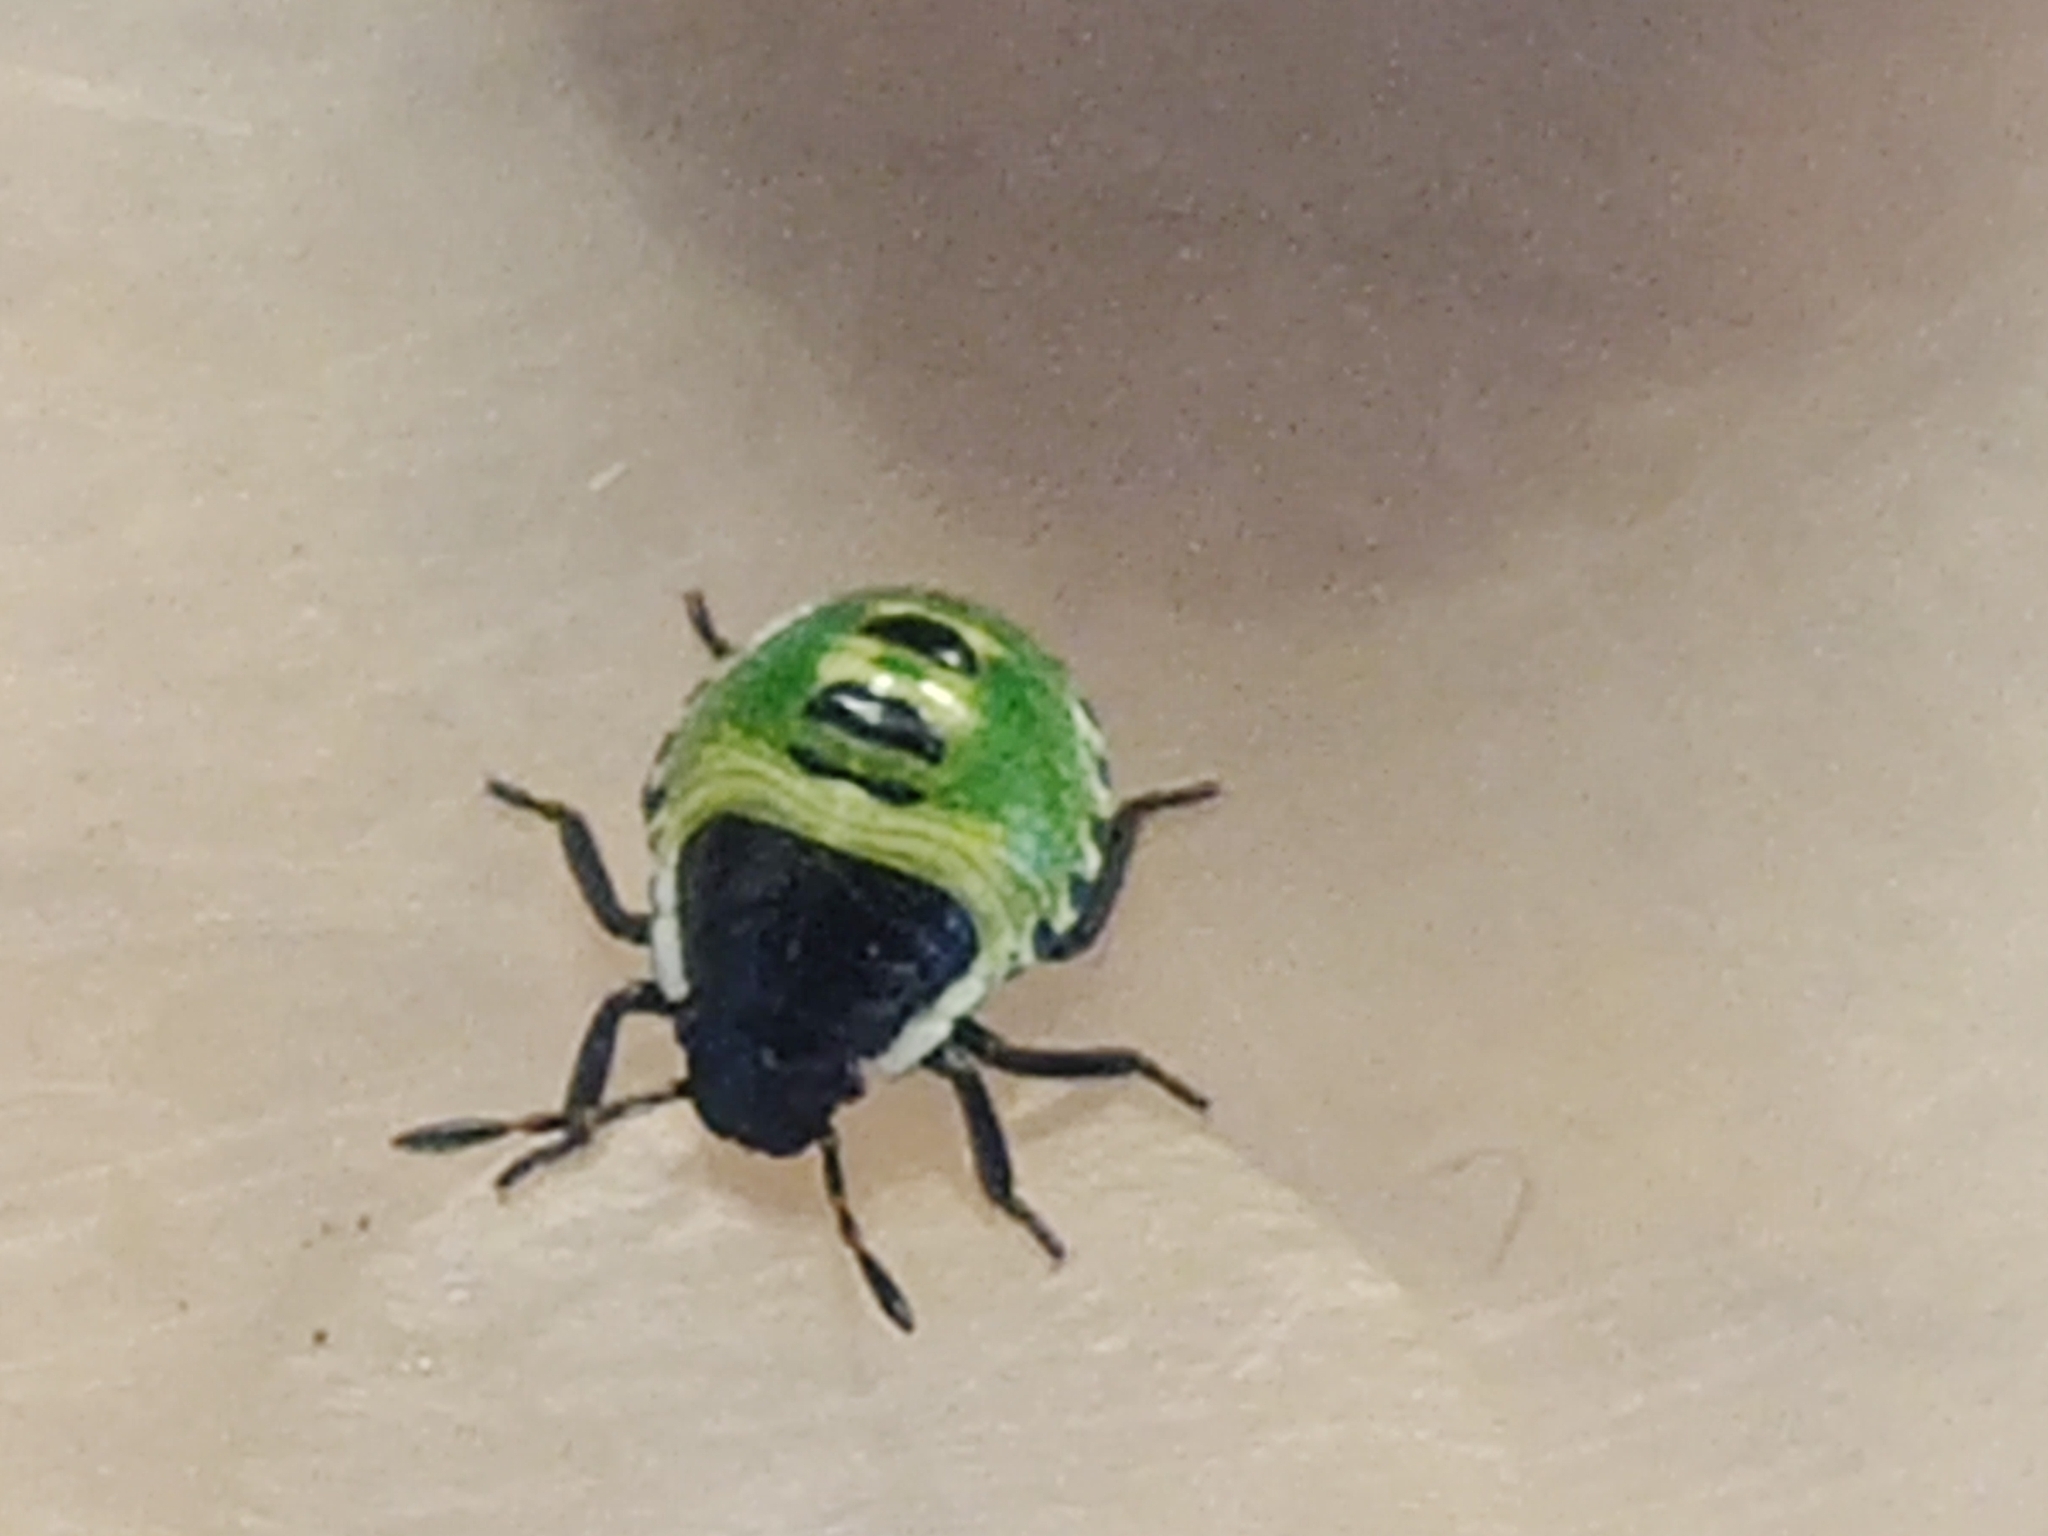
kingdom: Animalia
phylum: Arthropoda
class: Insecta
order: Hemiptera
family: Pentatomidae
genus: Palomena
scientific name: Palomena prasina
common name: Green shieldbug
